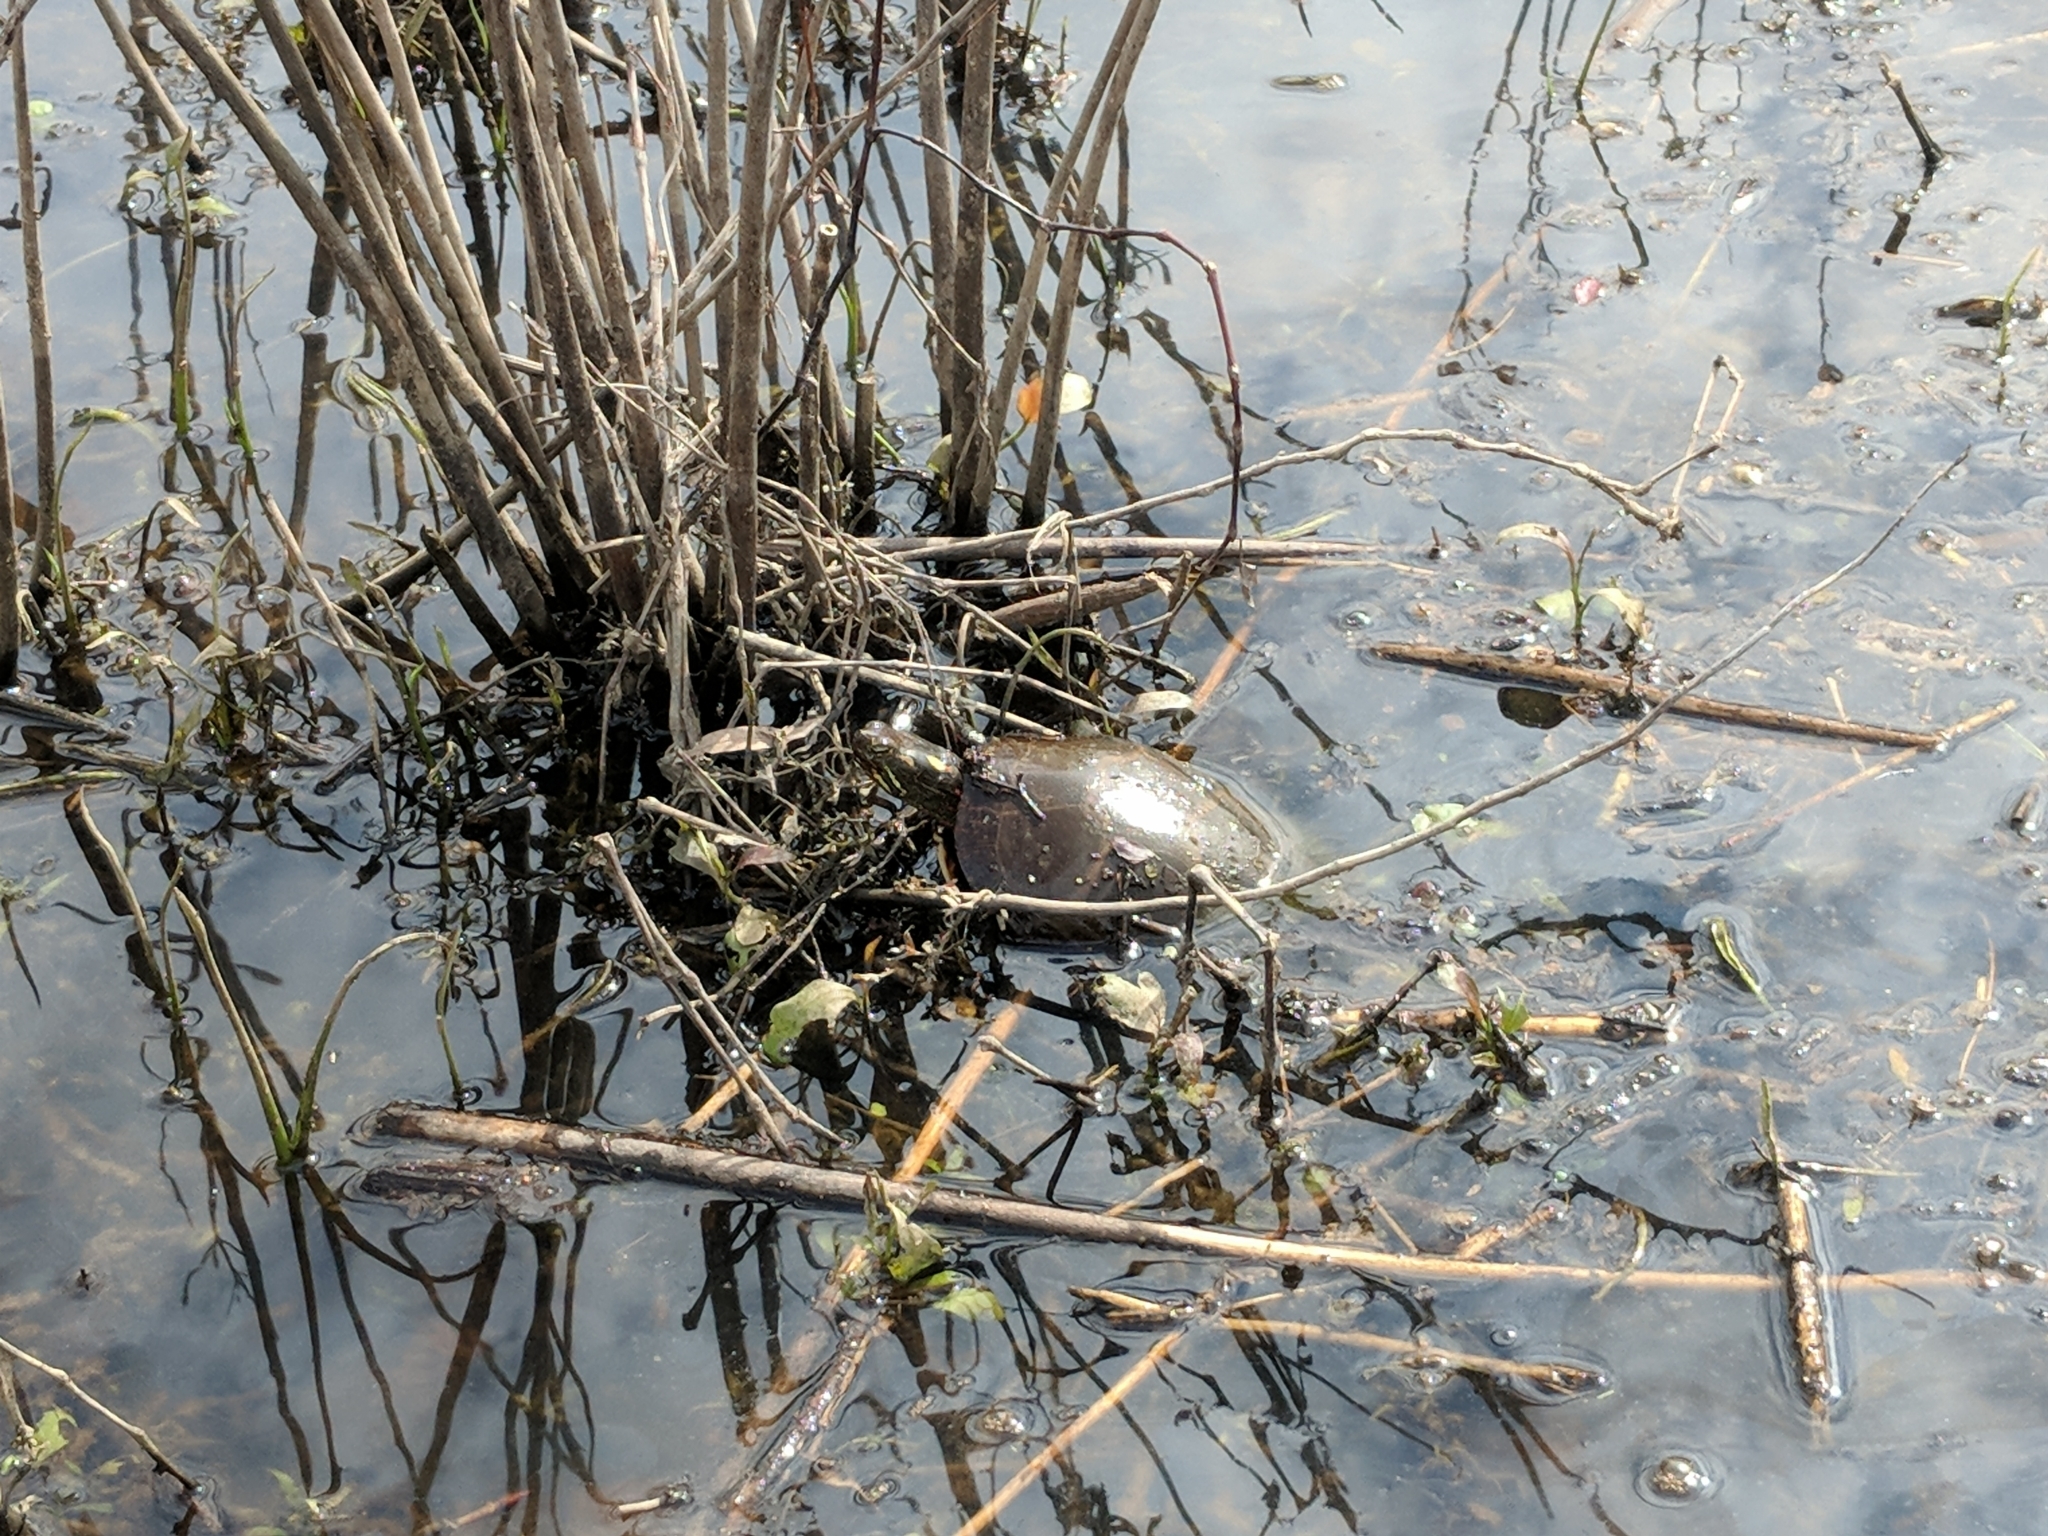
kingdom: Animalia
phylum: Chordata
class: Testudines
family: Emydidae
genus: Chrysemys
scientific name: Chrysemys picta
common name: Painted turtle
